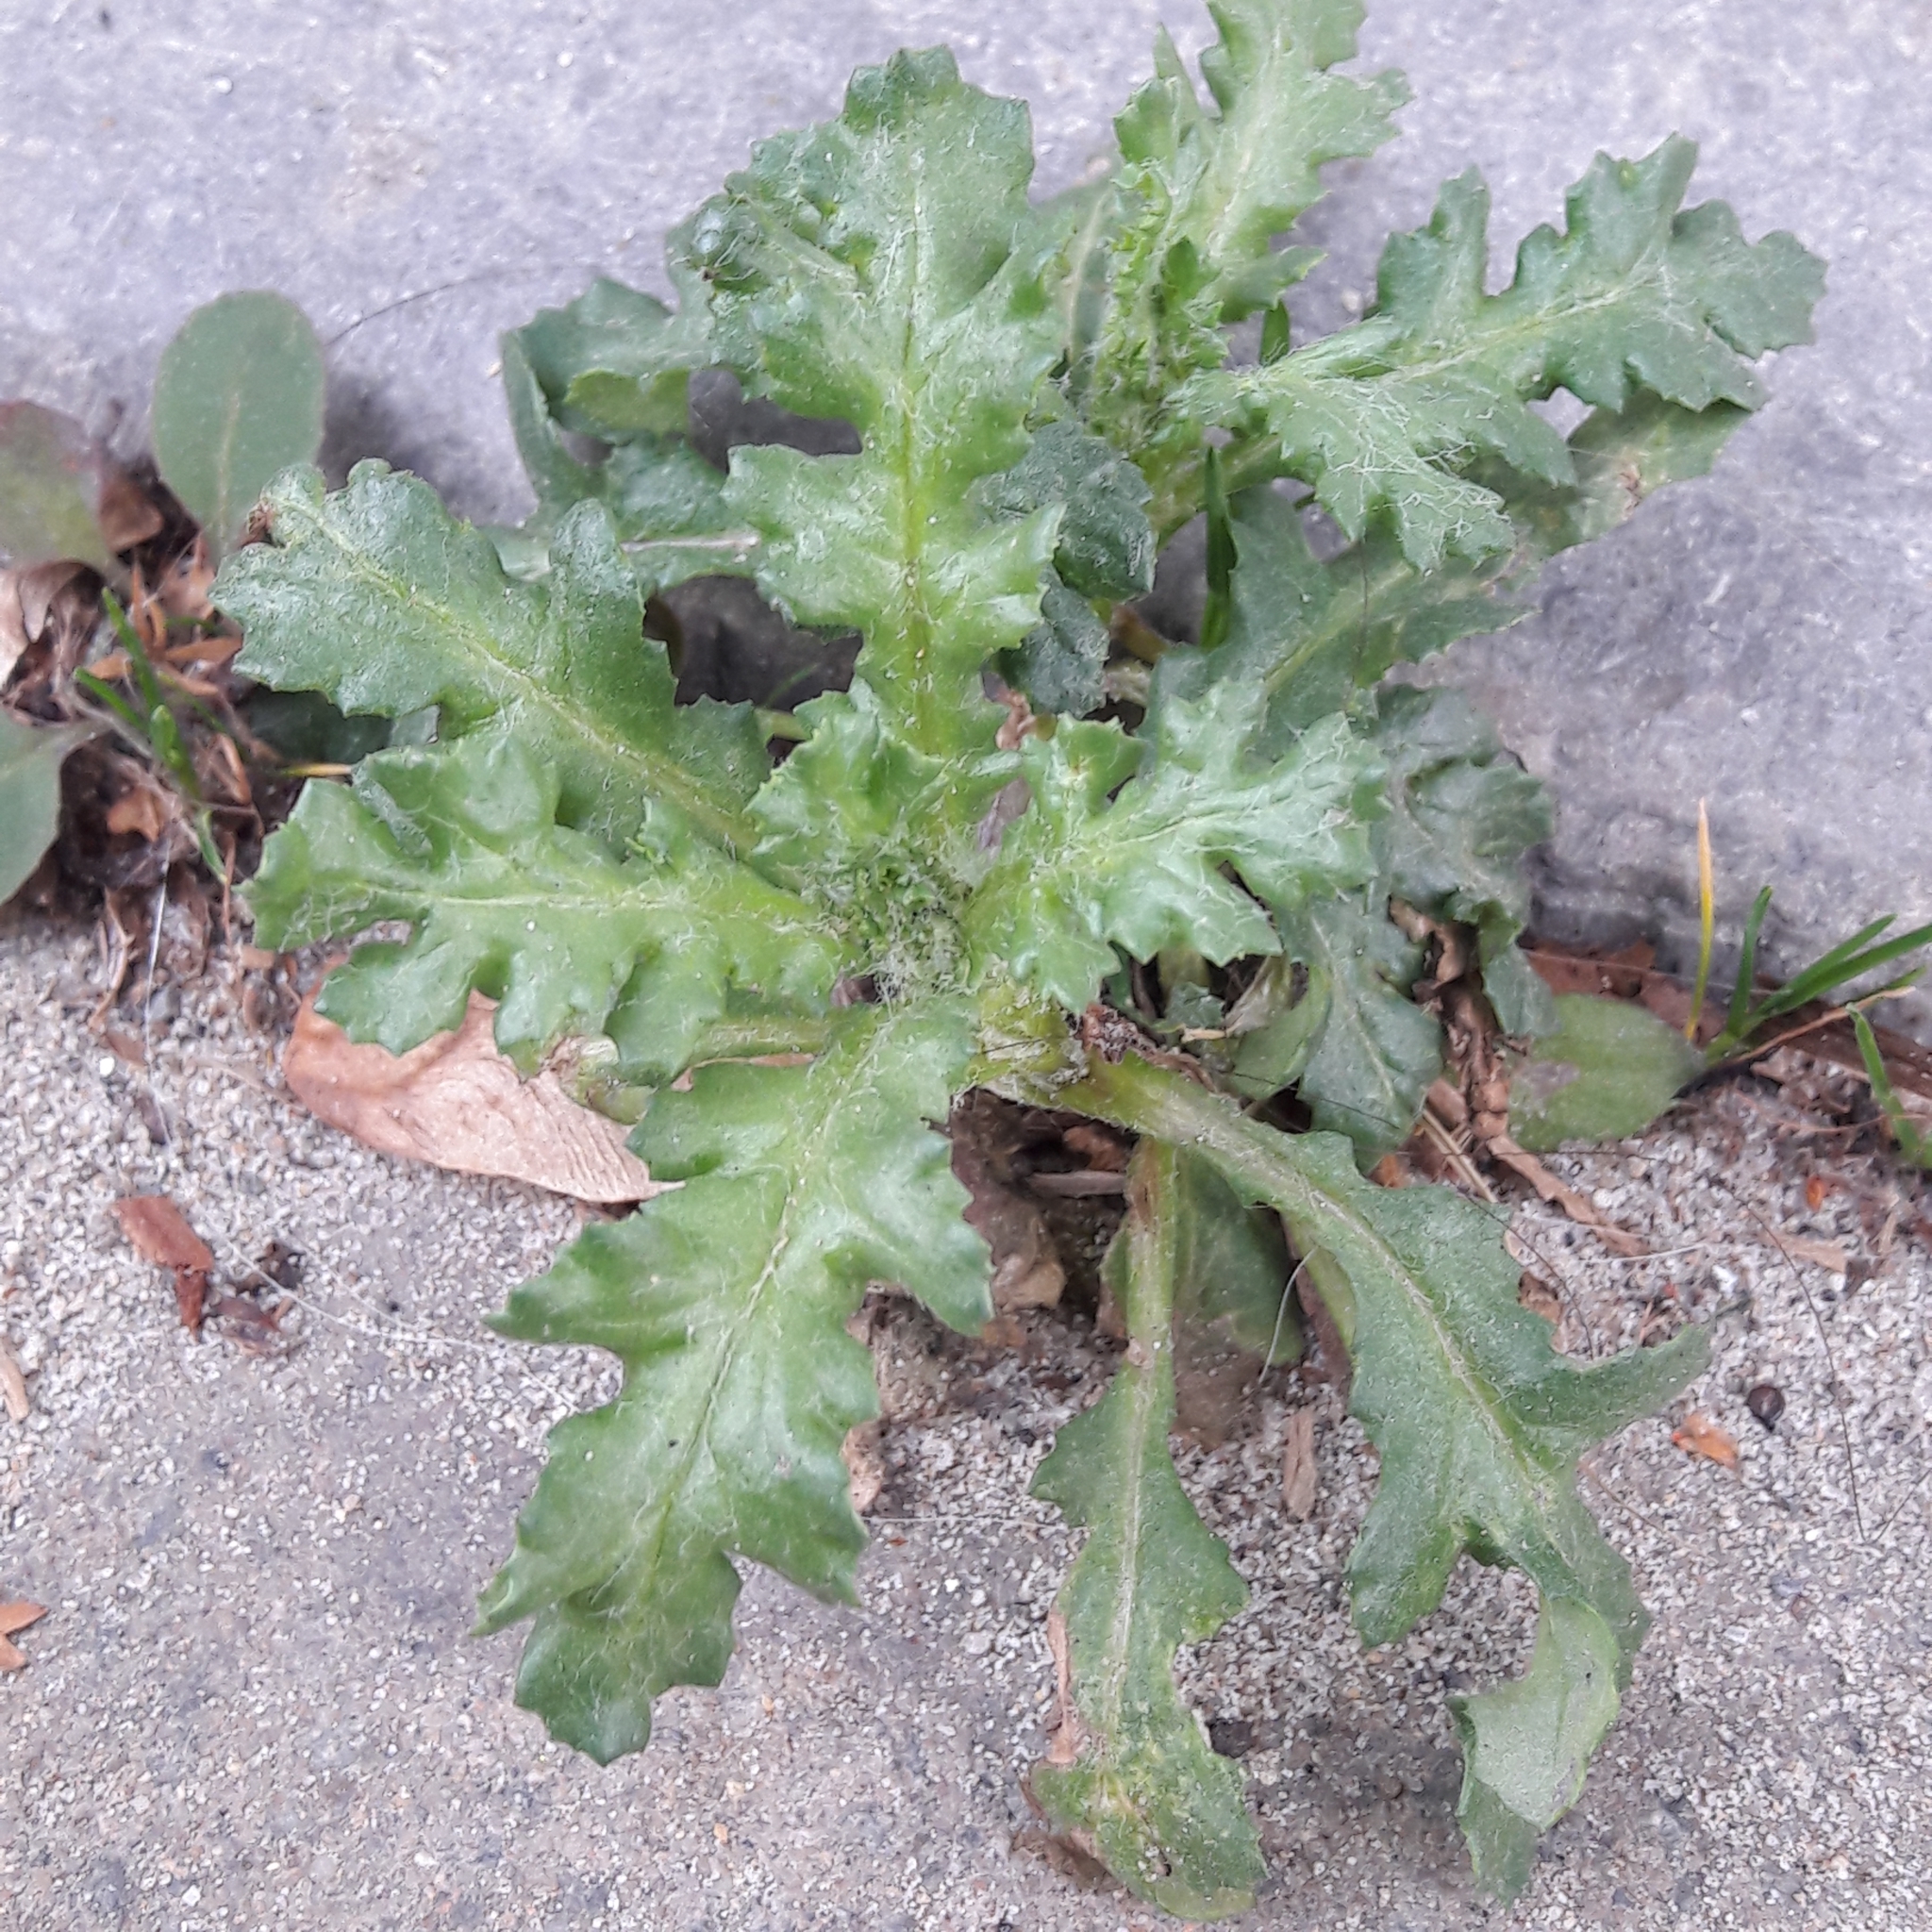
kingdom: Plantae
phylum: Tracheophyta
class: Magnoliopsida
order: Asterales
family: Asteraceae
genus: Senecio
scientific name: Senecio vulgaris
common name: Old-man-in-the-spring
